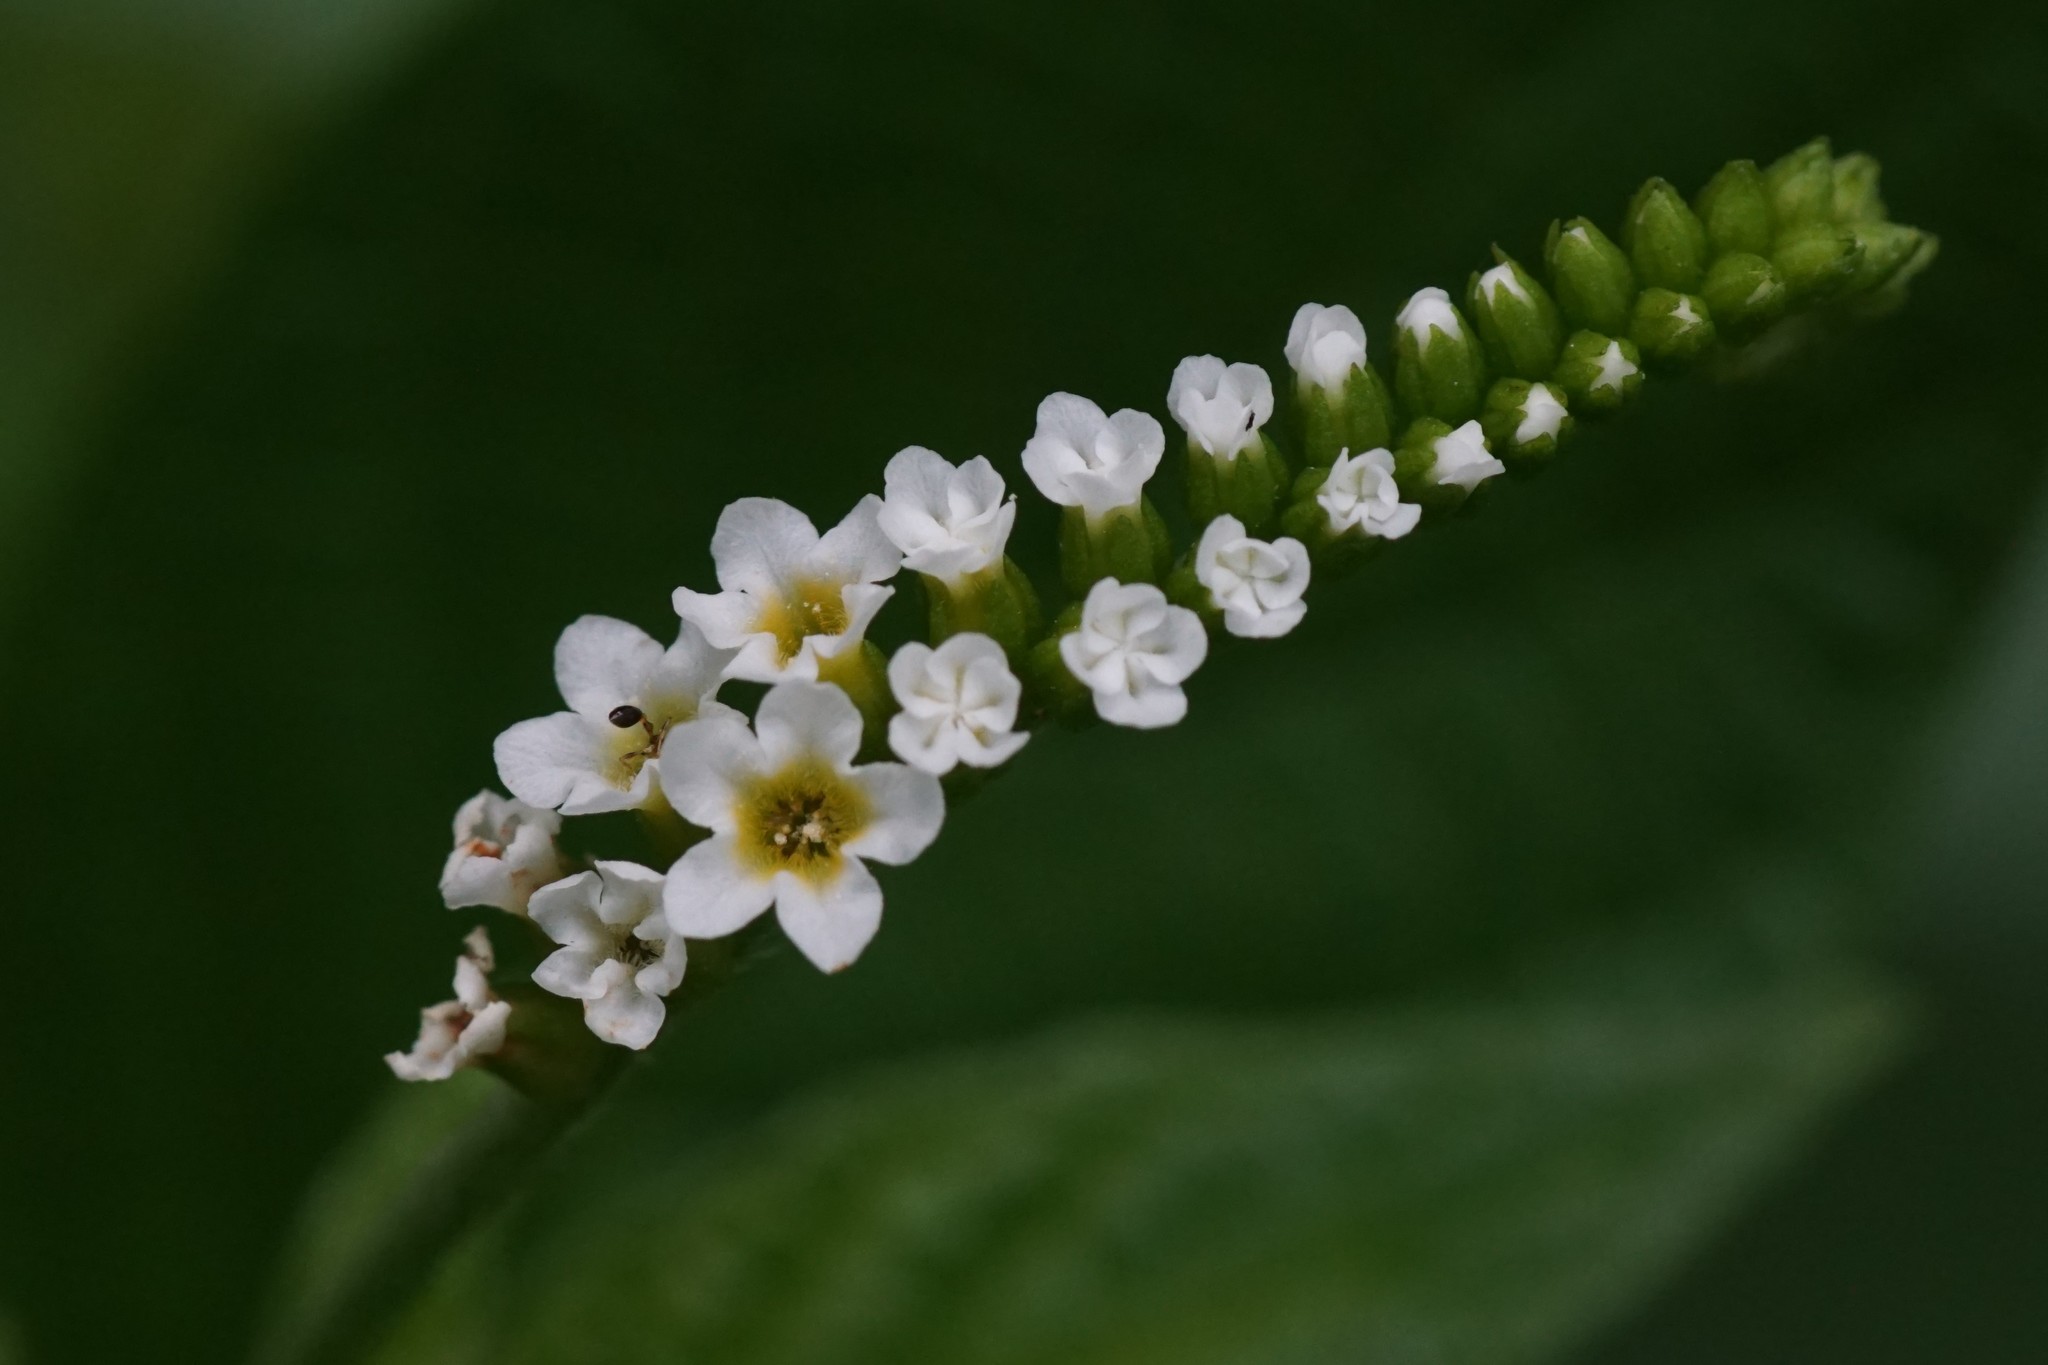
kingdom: Plantae
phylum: Tracheophyta
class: Magnoliopsida
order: Boraginales
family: Heliotropiaceae
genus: Heliotropium
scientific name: Heliotropium angiospermum
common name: Eye bright
